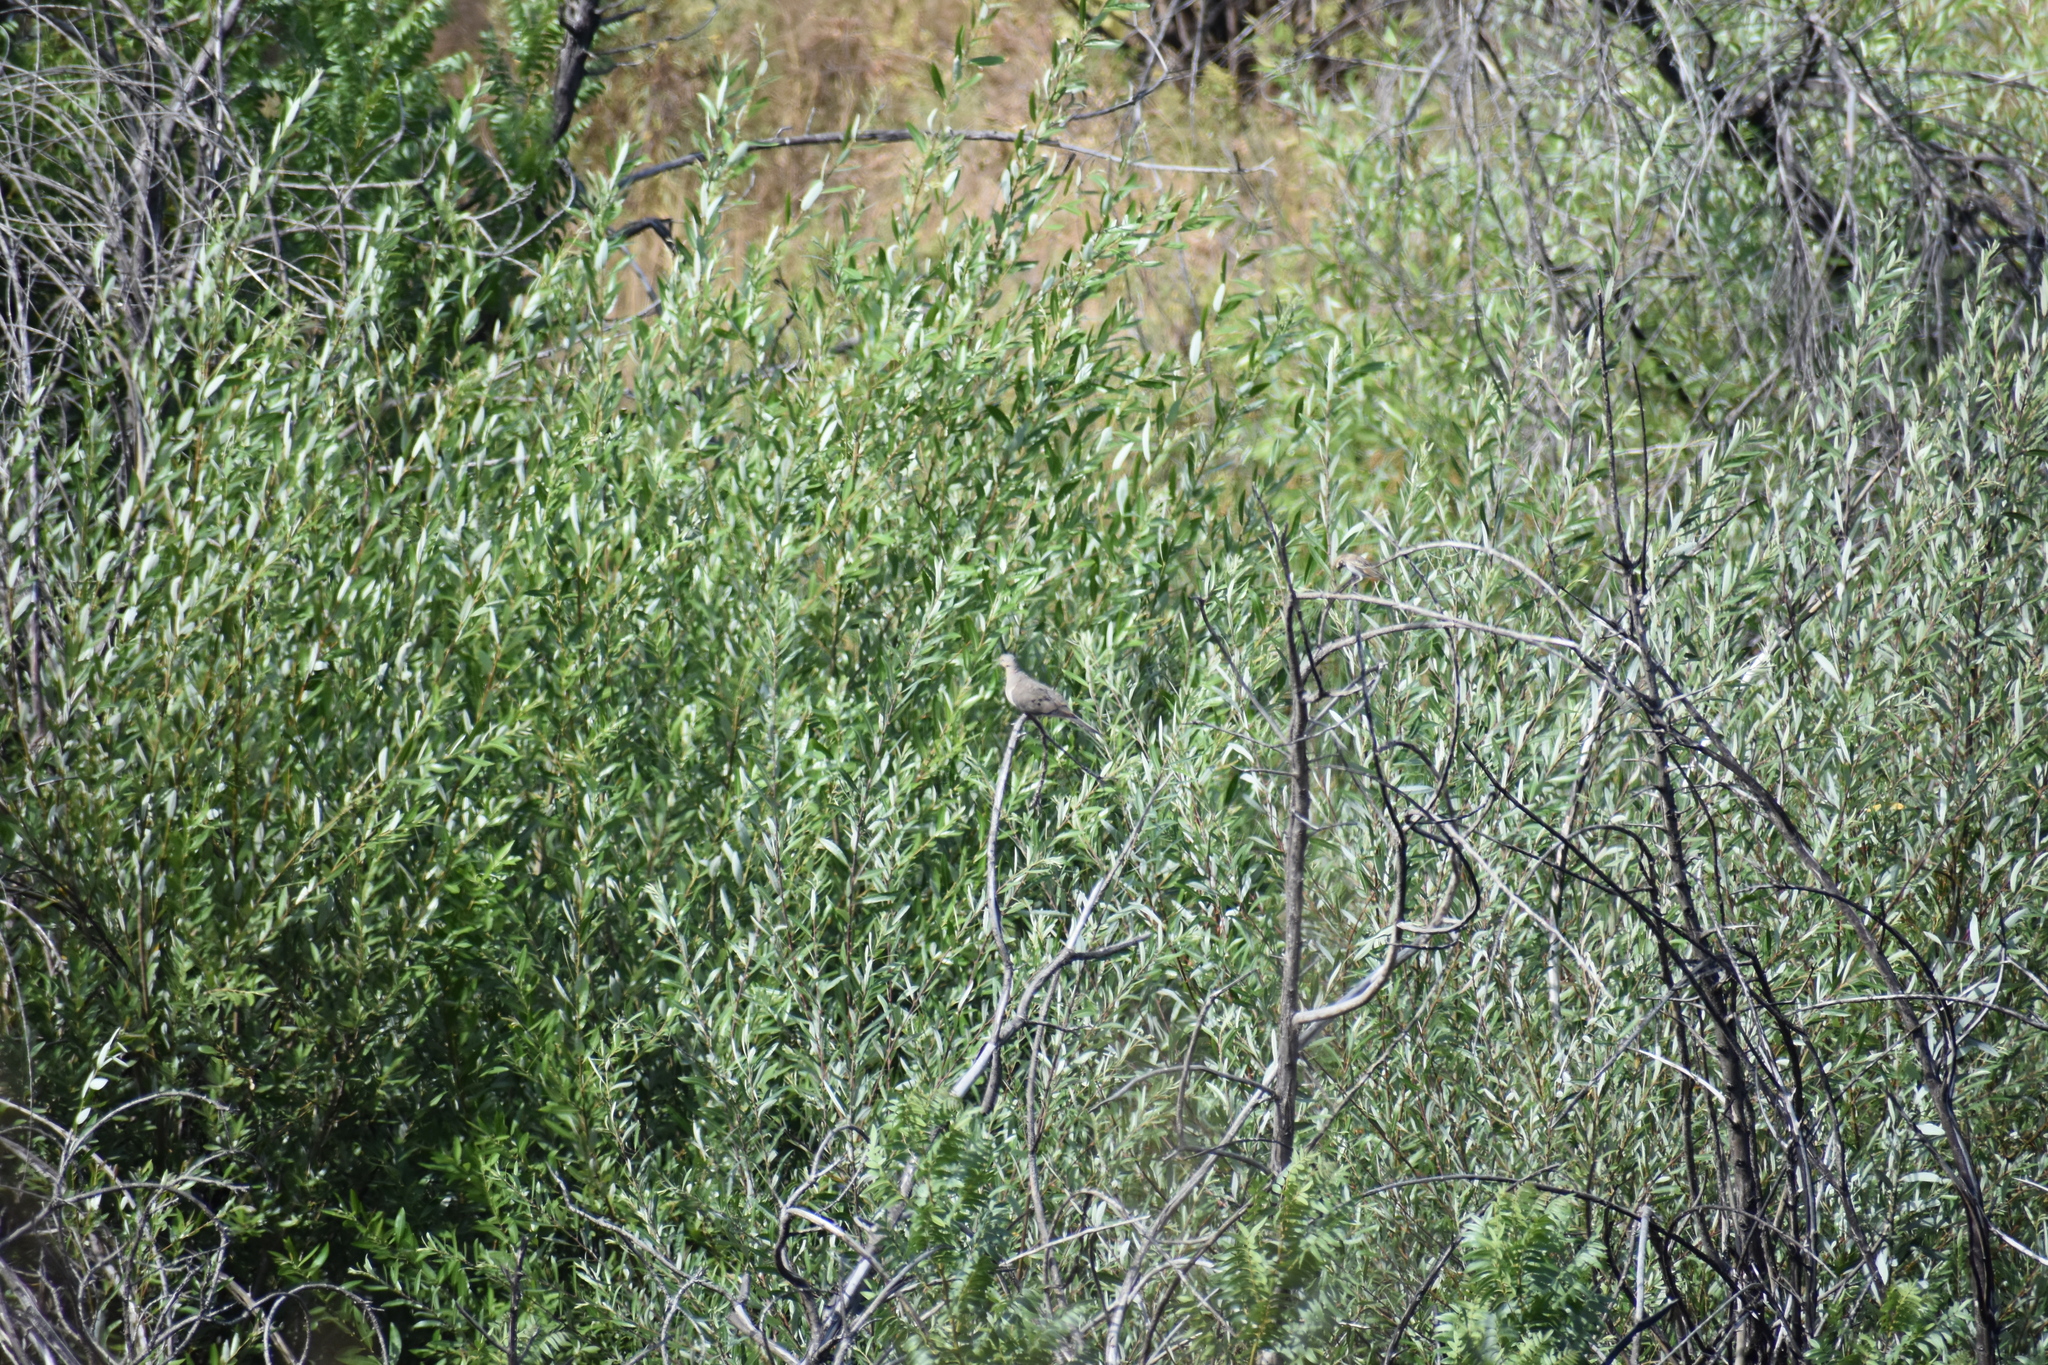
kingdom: Animalia
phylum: Chordata
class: Aves
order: Columbiformes
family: Columbidae
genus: Zenaida
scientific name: Zenaida macroura
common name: Mourning dove
